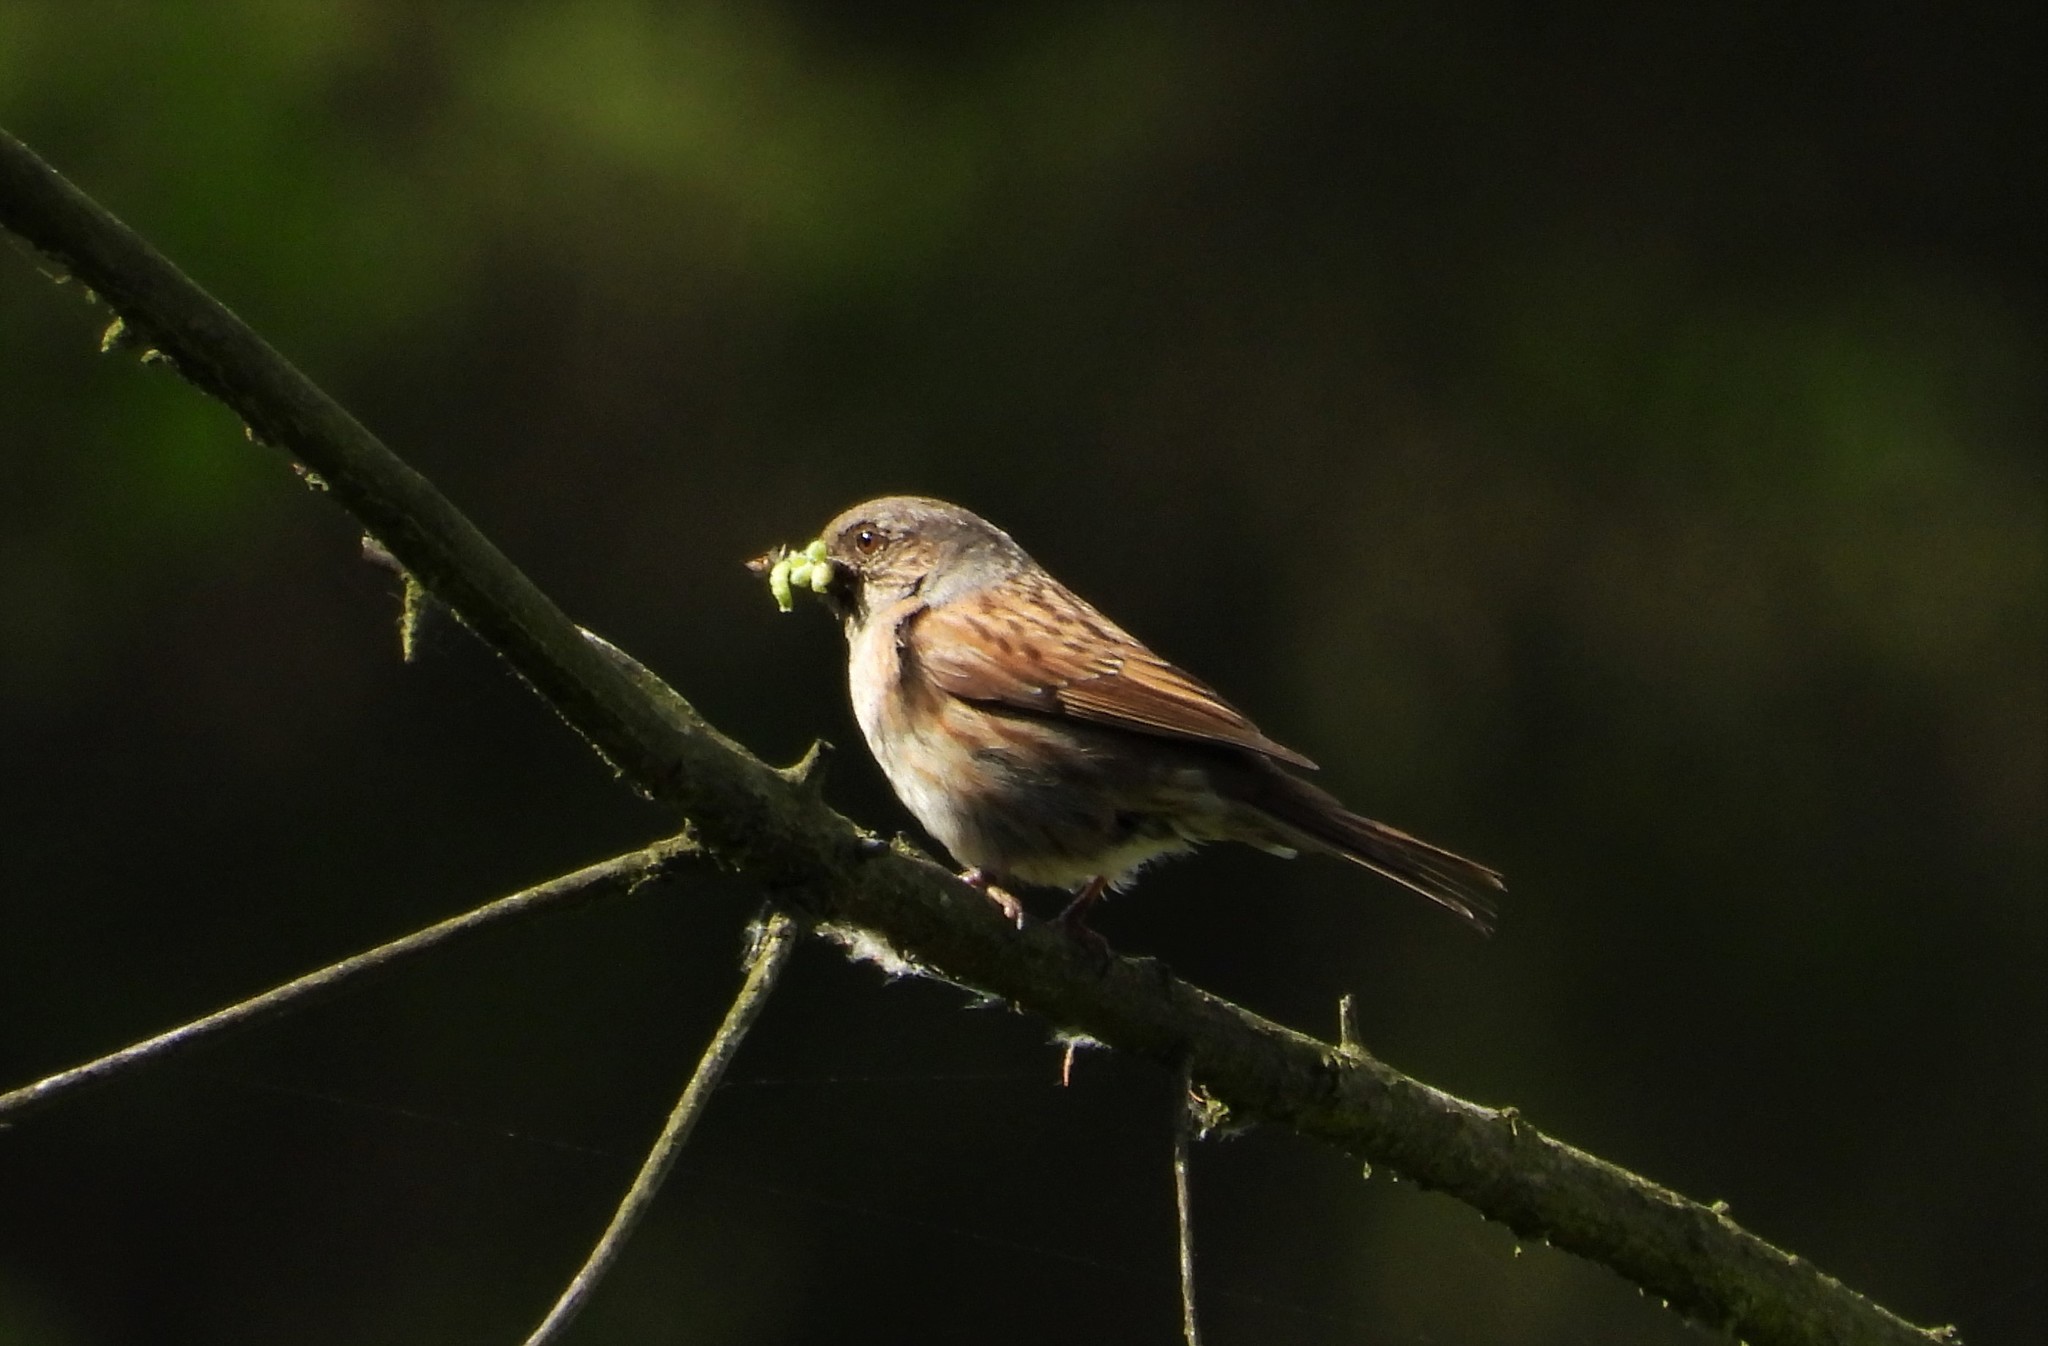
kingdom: Animalia
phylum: Chordata
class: Aves
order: Passeriformes
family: Prunellidae
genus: Prunella
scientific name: Prunella modularis
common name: Dunnock
